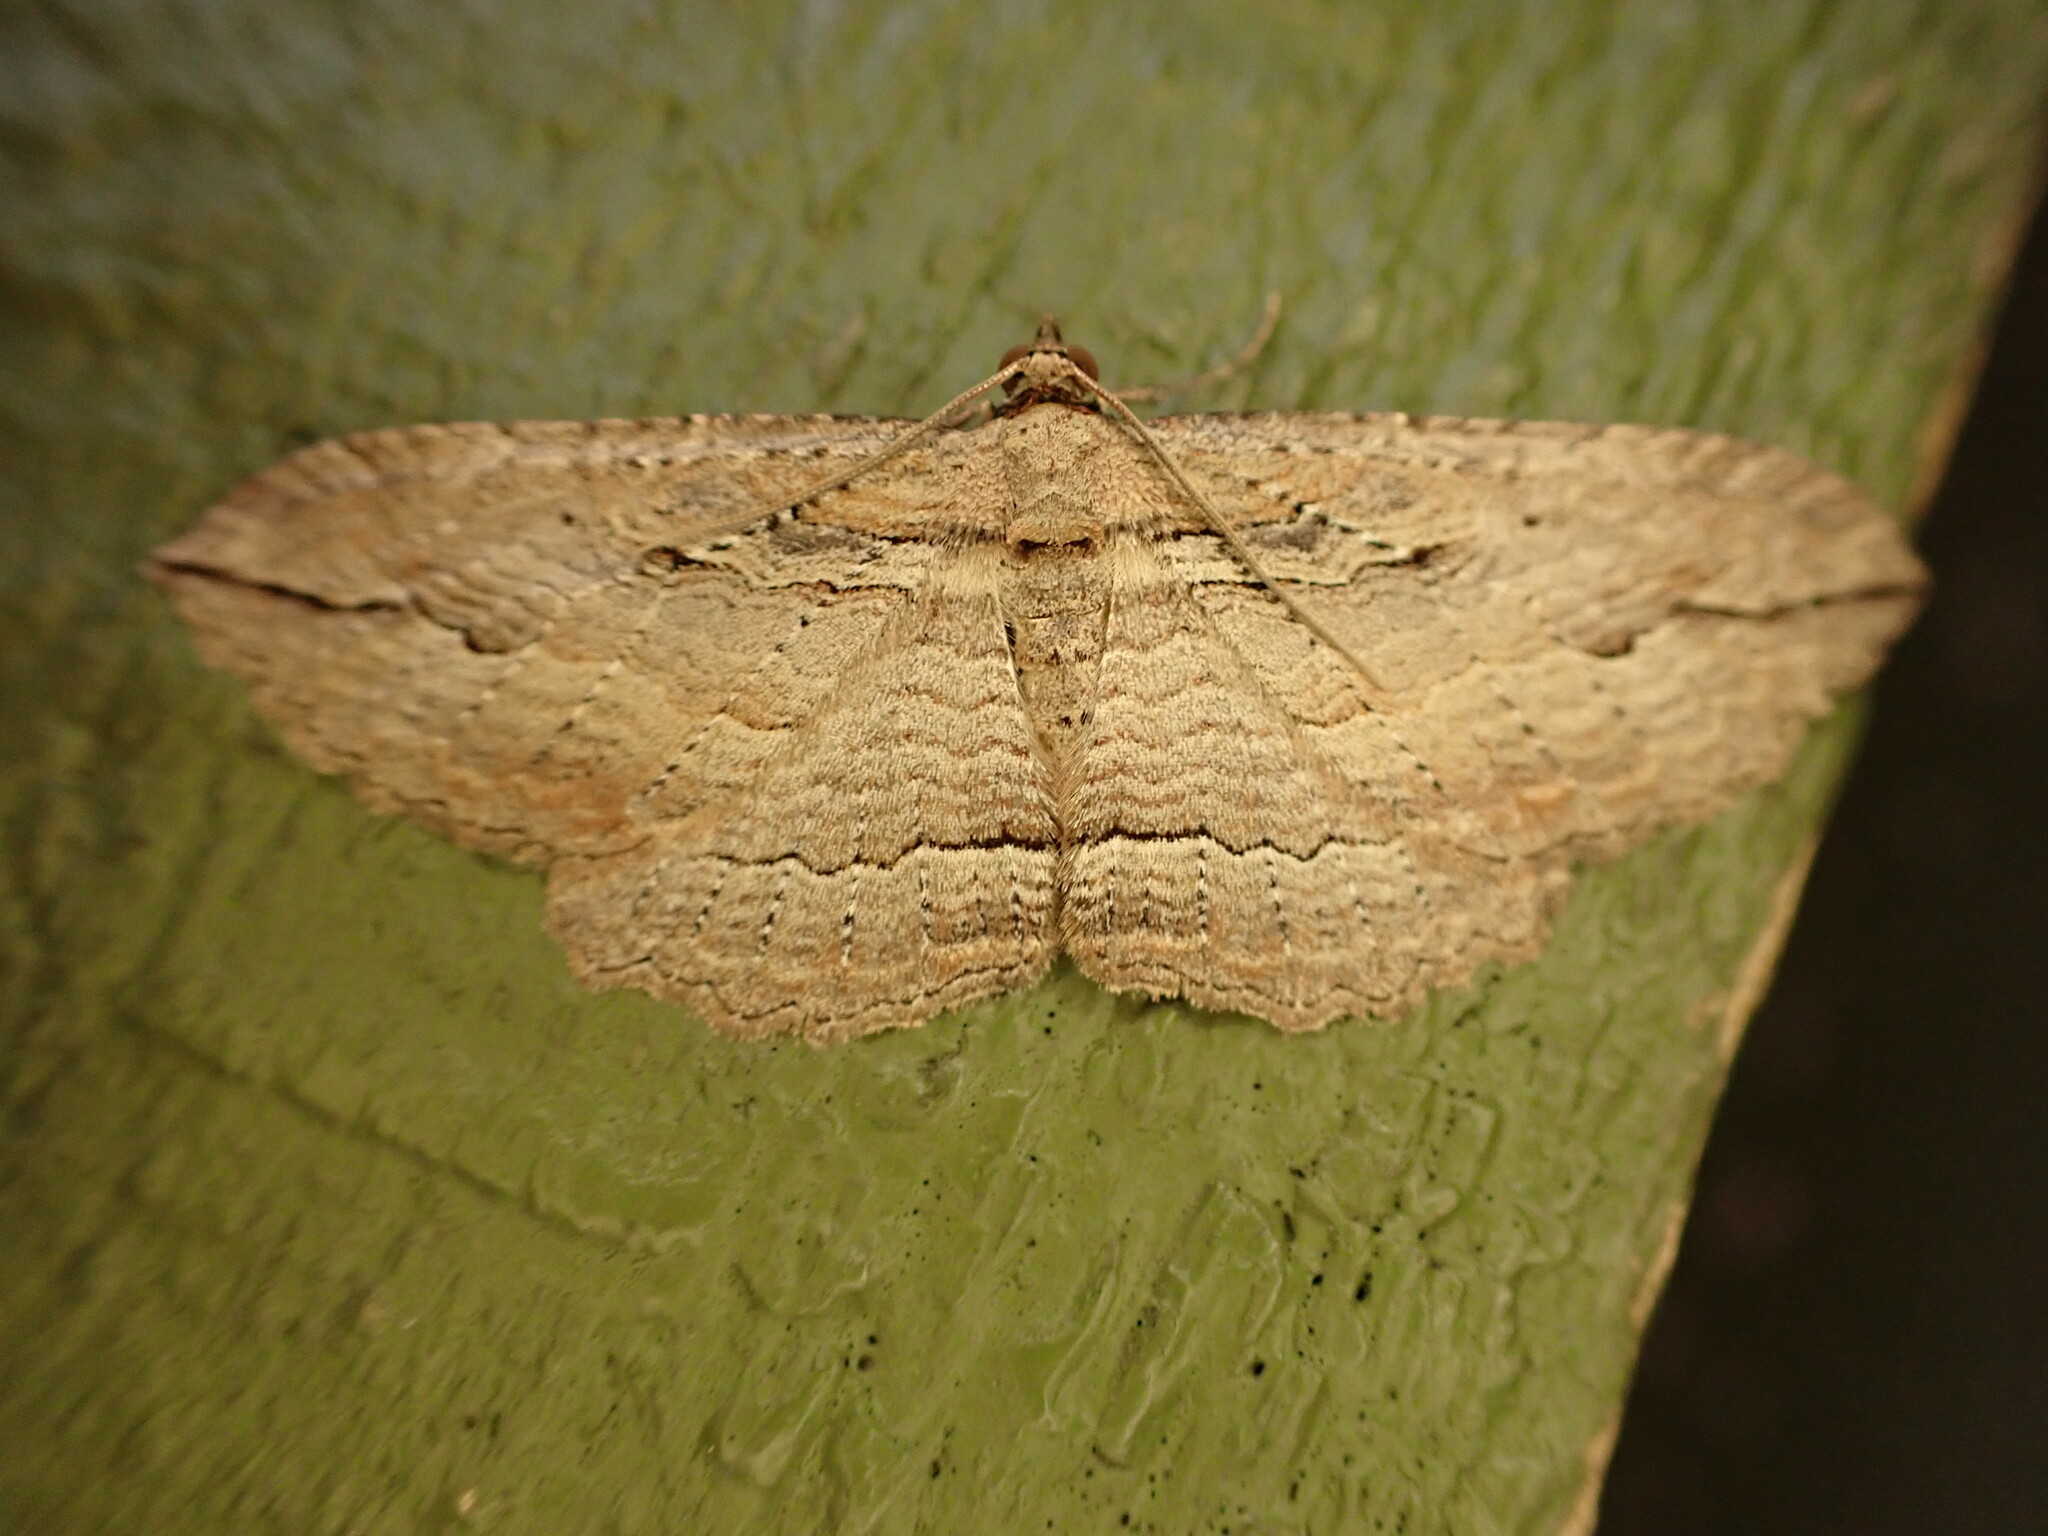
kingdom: Animalia
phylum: Arthropoda
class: Insecta
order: Lepidoptera
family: Geometridae
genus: Austrocidaria
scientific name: Austrocidaria gobiata
